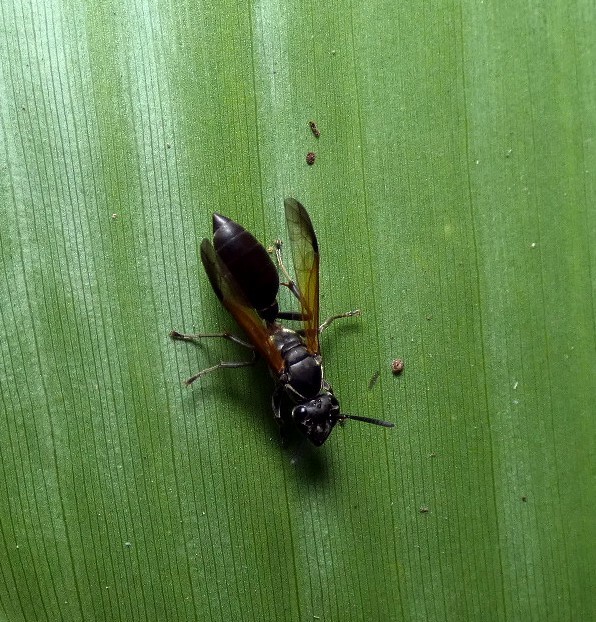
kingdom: Animalia
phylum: Arthropoda
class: Insecta
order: Hymenoptera
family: Eumenidae
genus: Polybia
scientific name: Polybia rejecta
